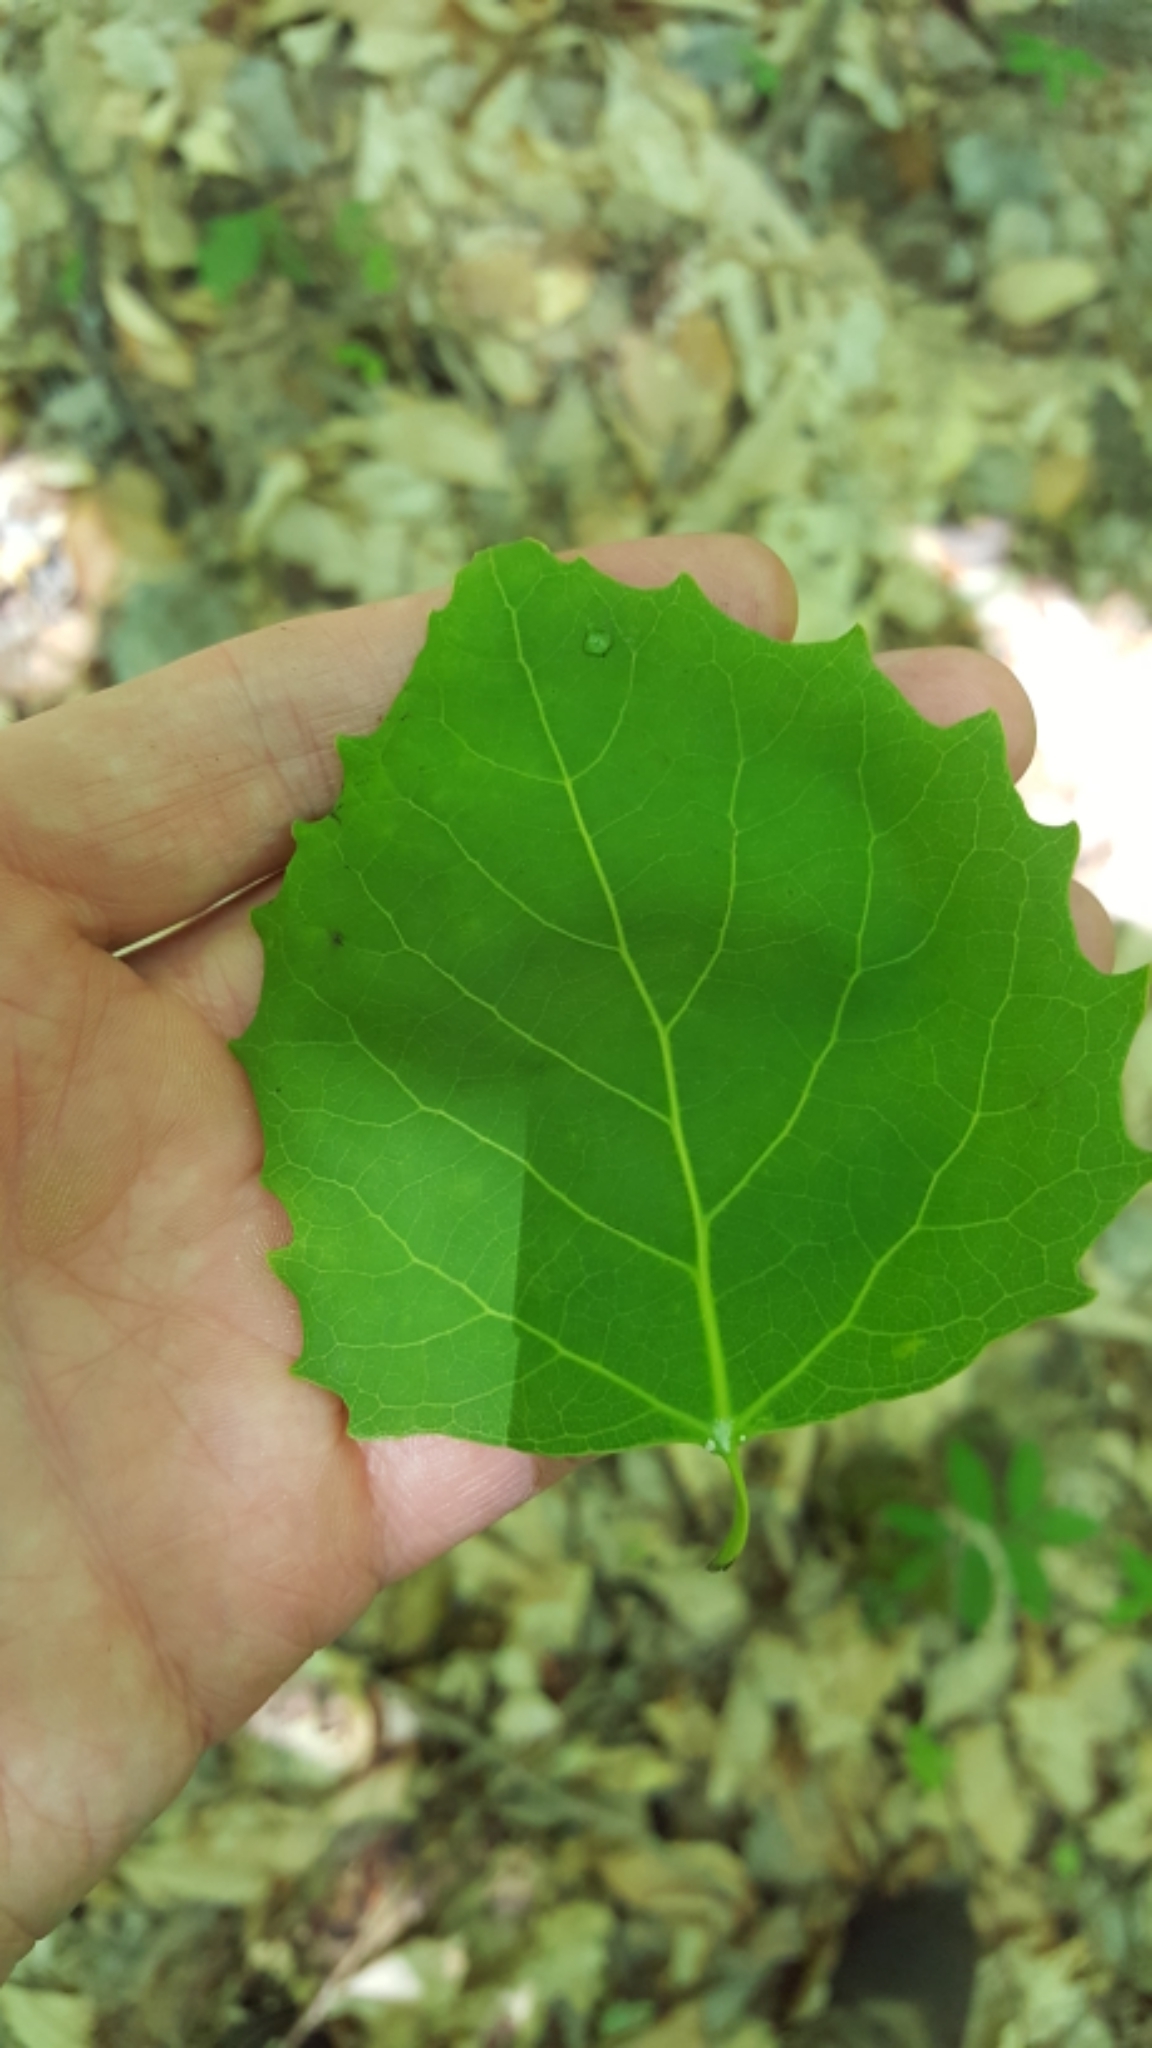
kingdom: Plantae
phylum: Tracheophyta
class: Magnoliopsida
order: Malpighiales
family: Salicaceae
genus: Populus
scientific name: Populus grandidentata
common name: Bigtooth aspen
